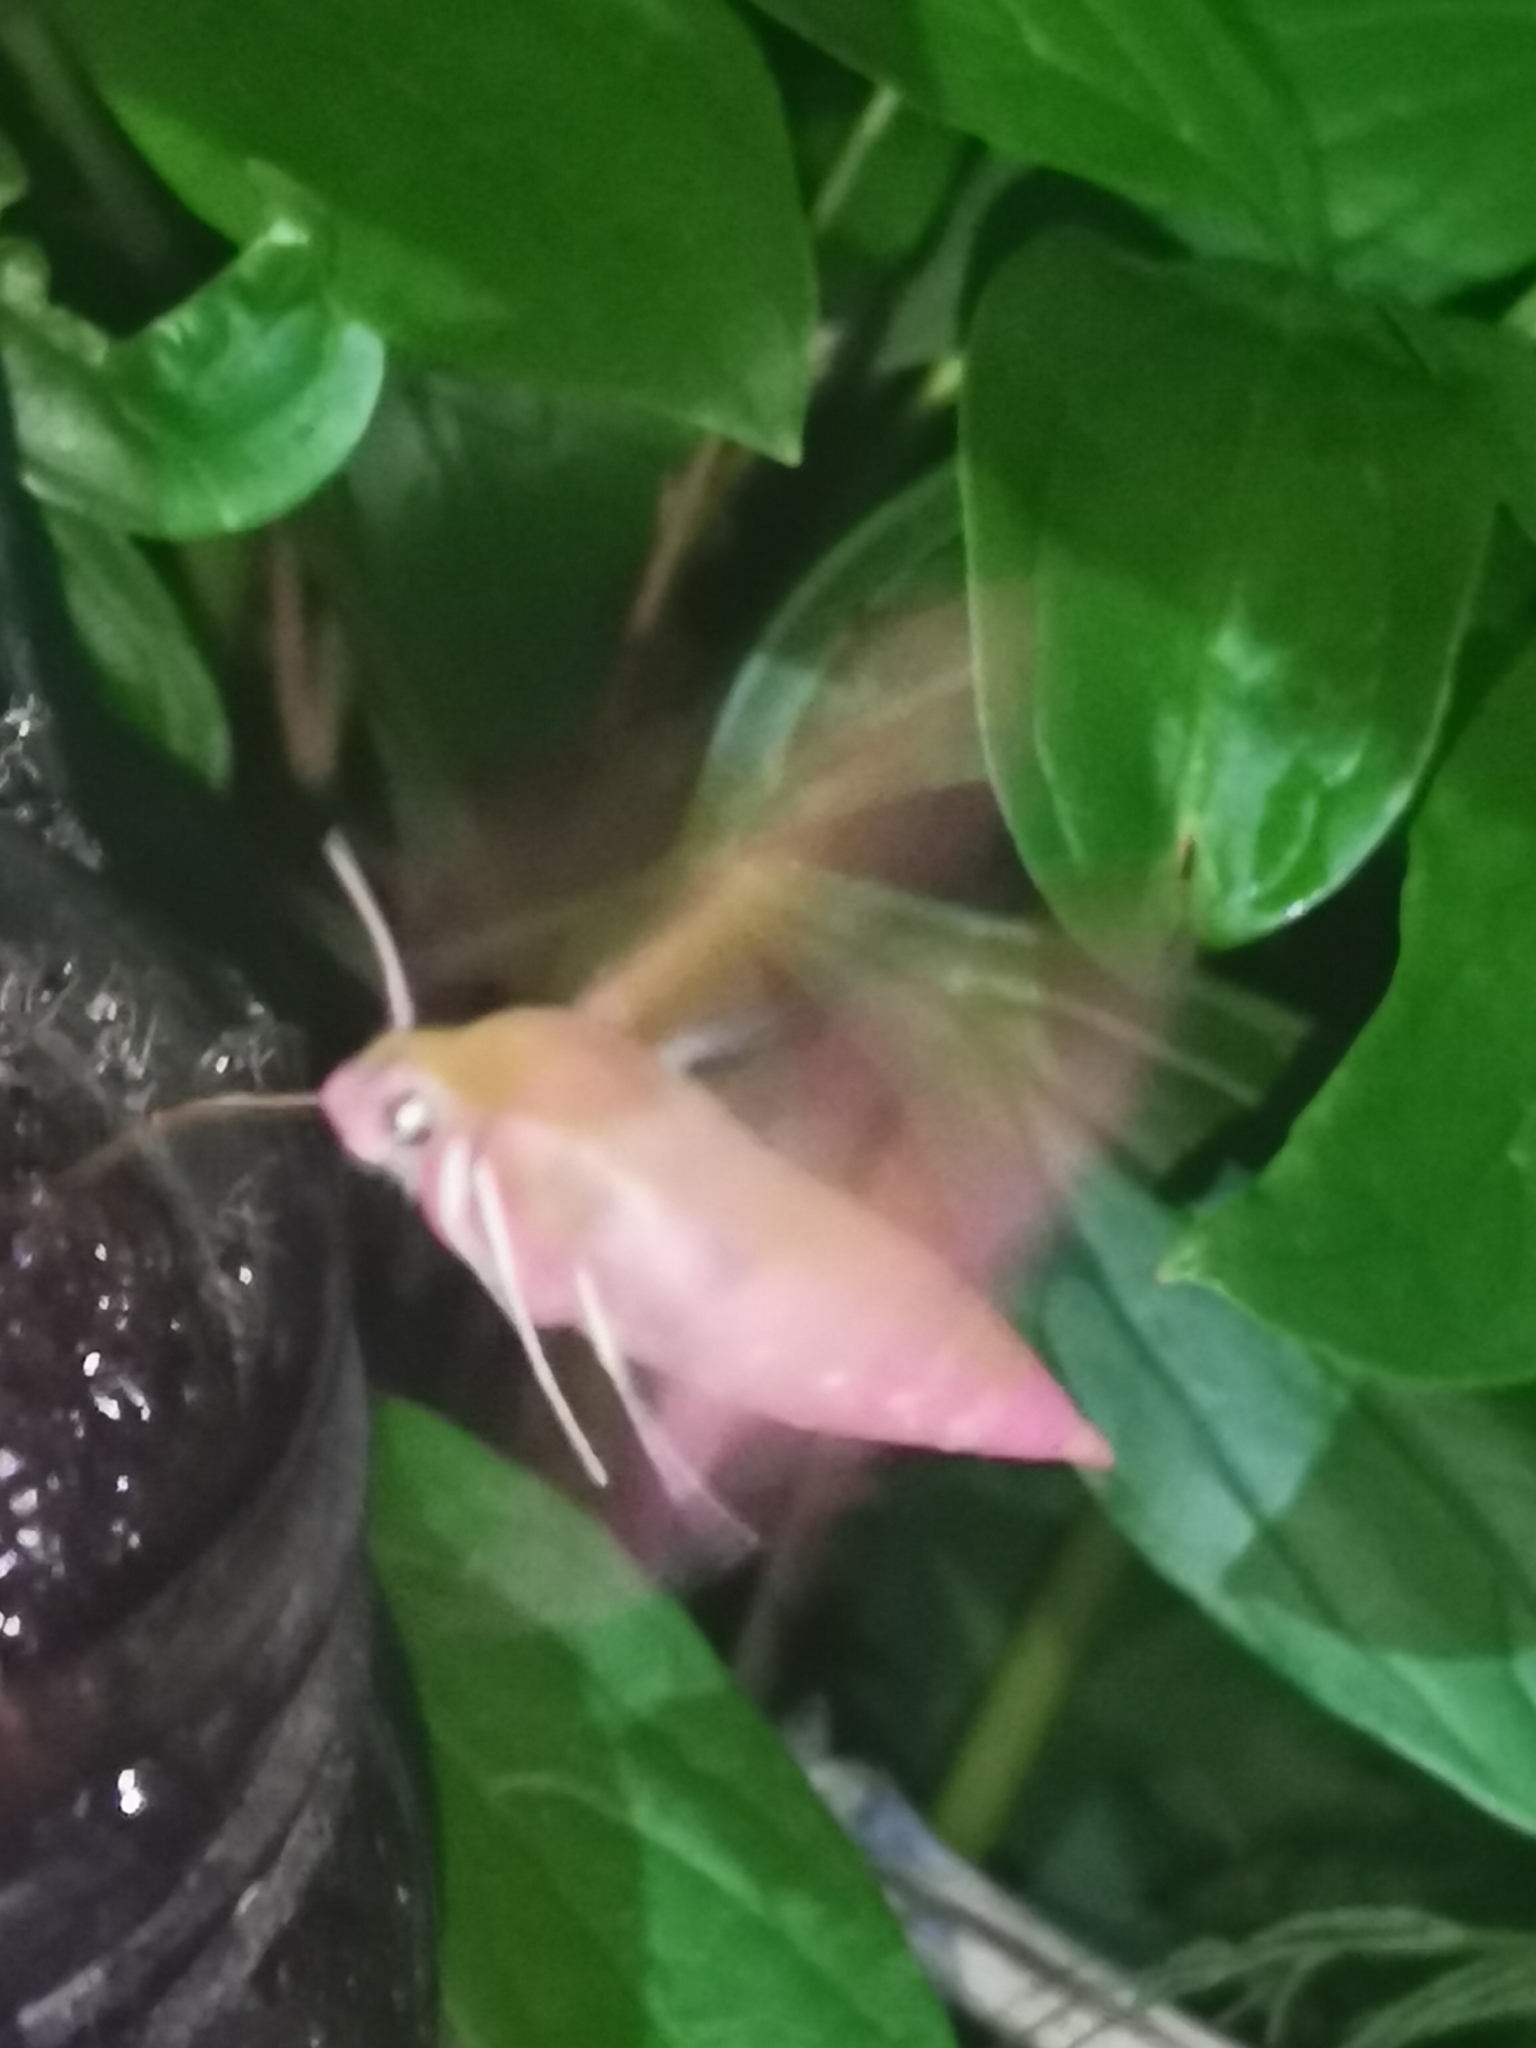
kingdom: Animalia
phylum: Arthropoda
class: Insecta
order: Lepidoptera
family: Sphingidae
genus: Deilephila
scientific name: Deilephila elpenor
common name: Elephant hawk-moth
